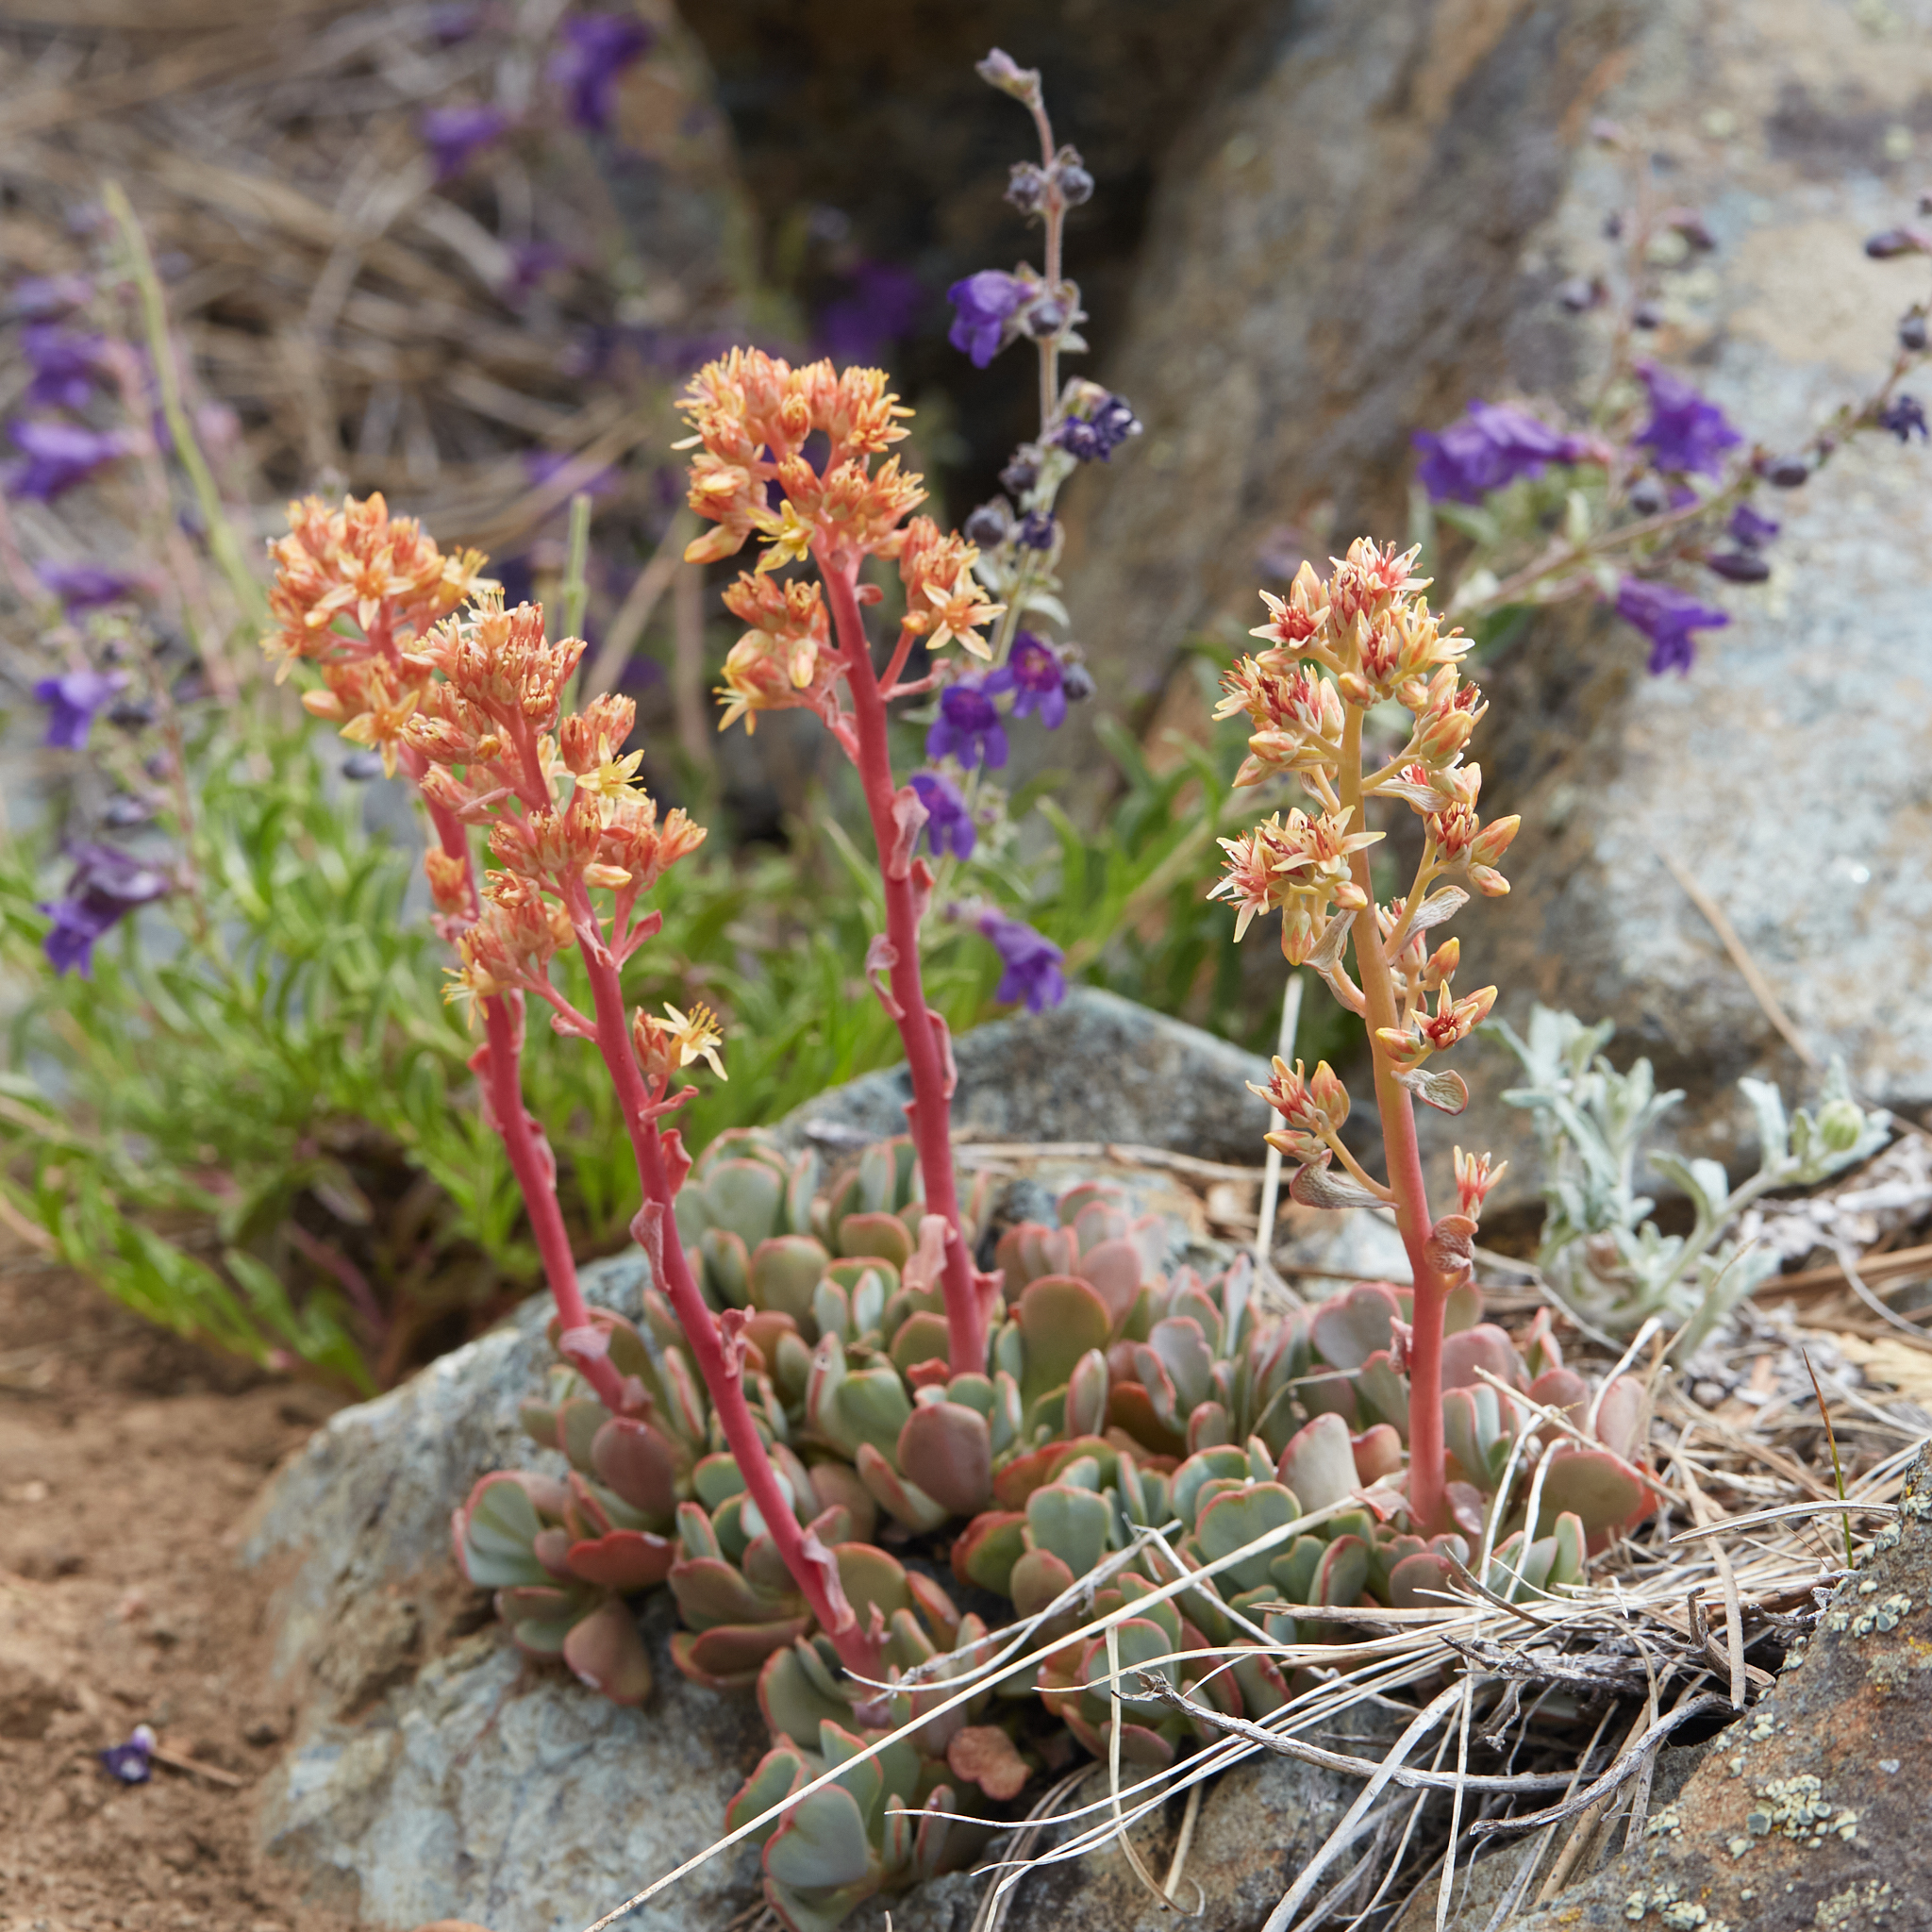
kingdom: Plantae
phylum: Tracheophyta
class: Magnoliopsida
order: Saxifragales
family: Crassulaceae
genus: Sedum
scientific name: Sedum obtusatum
